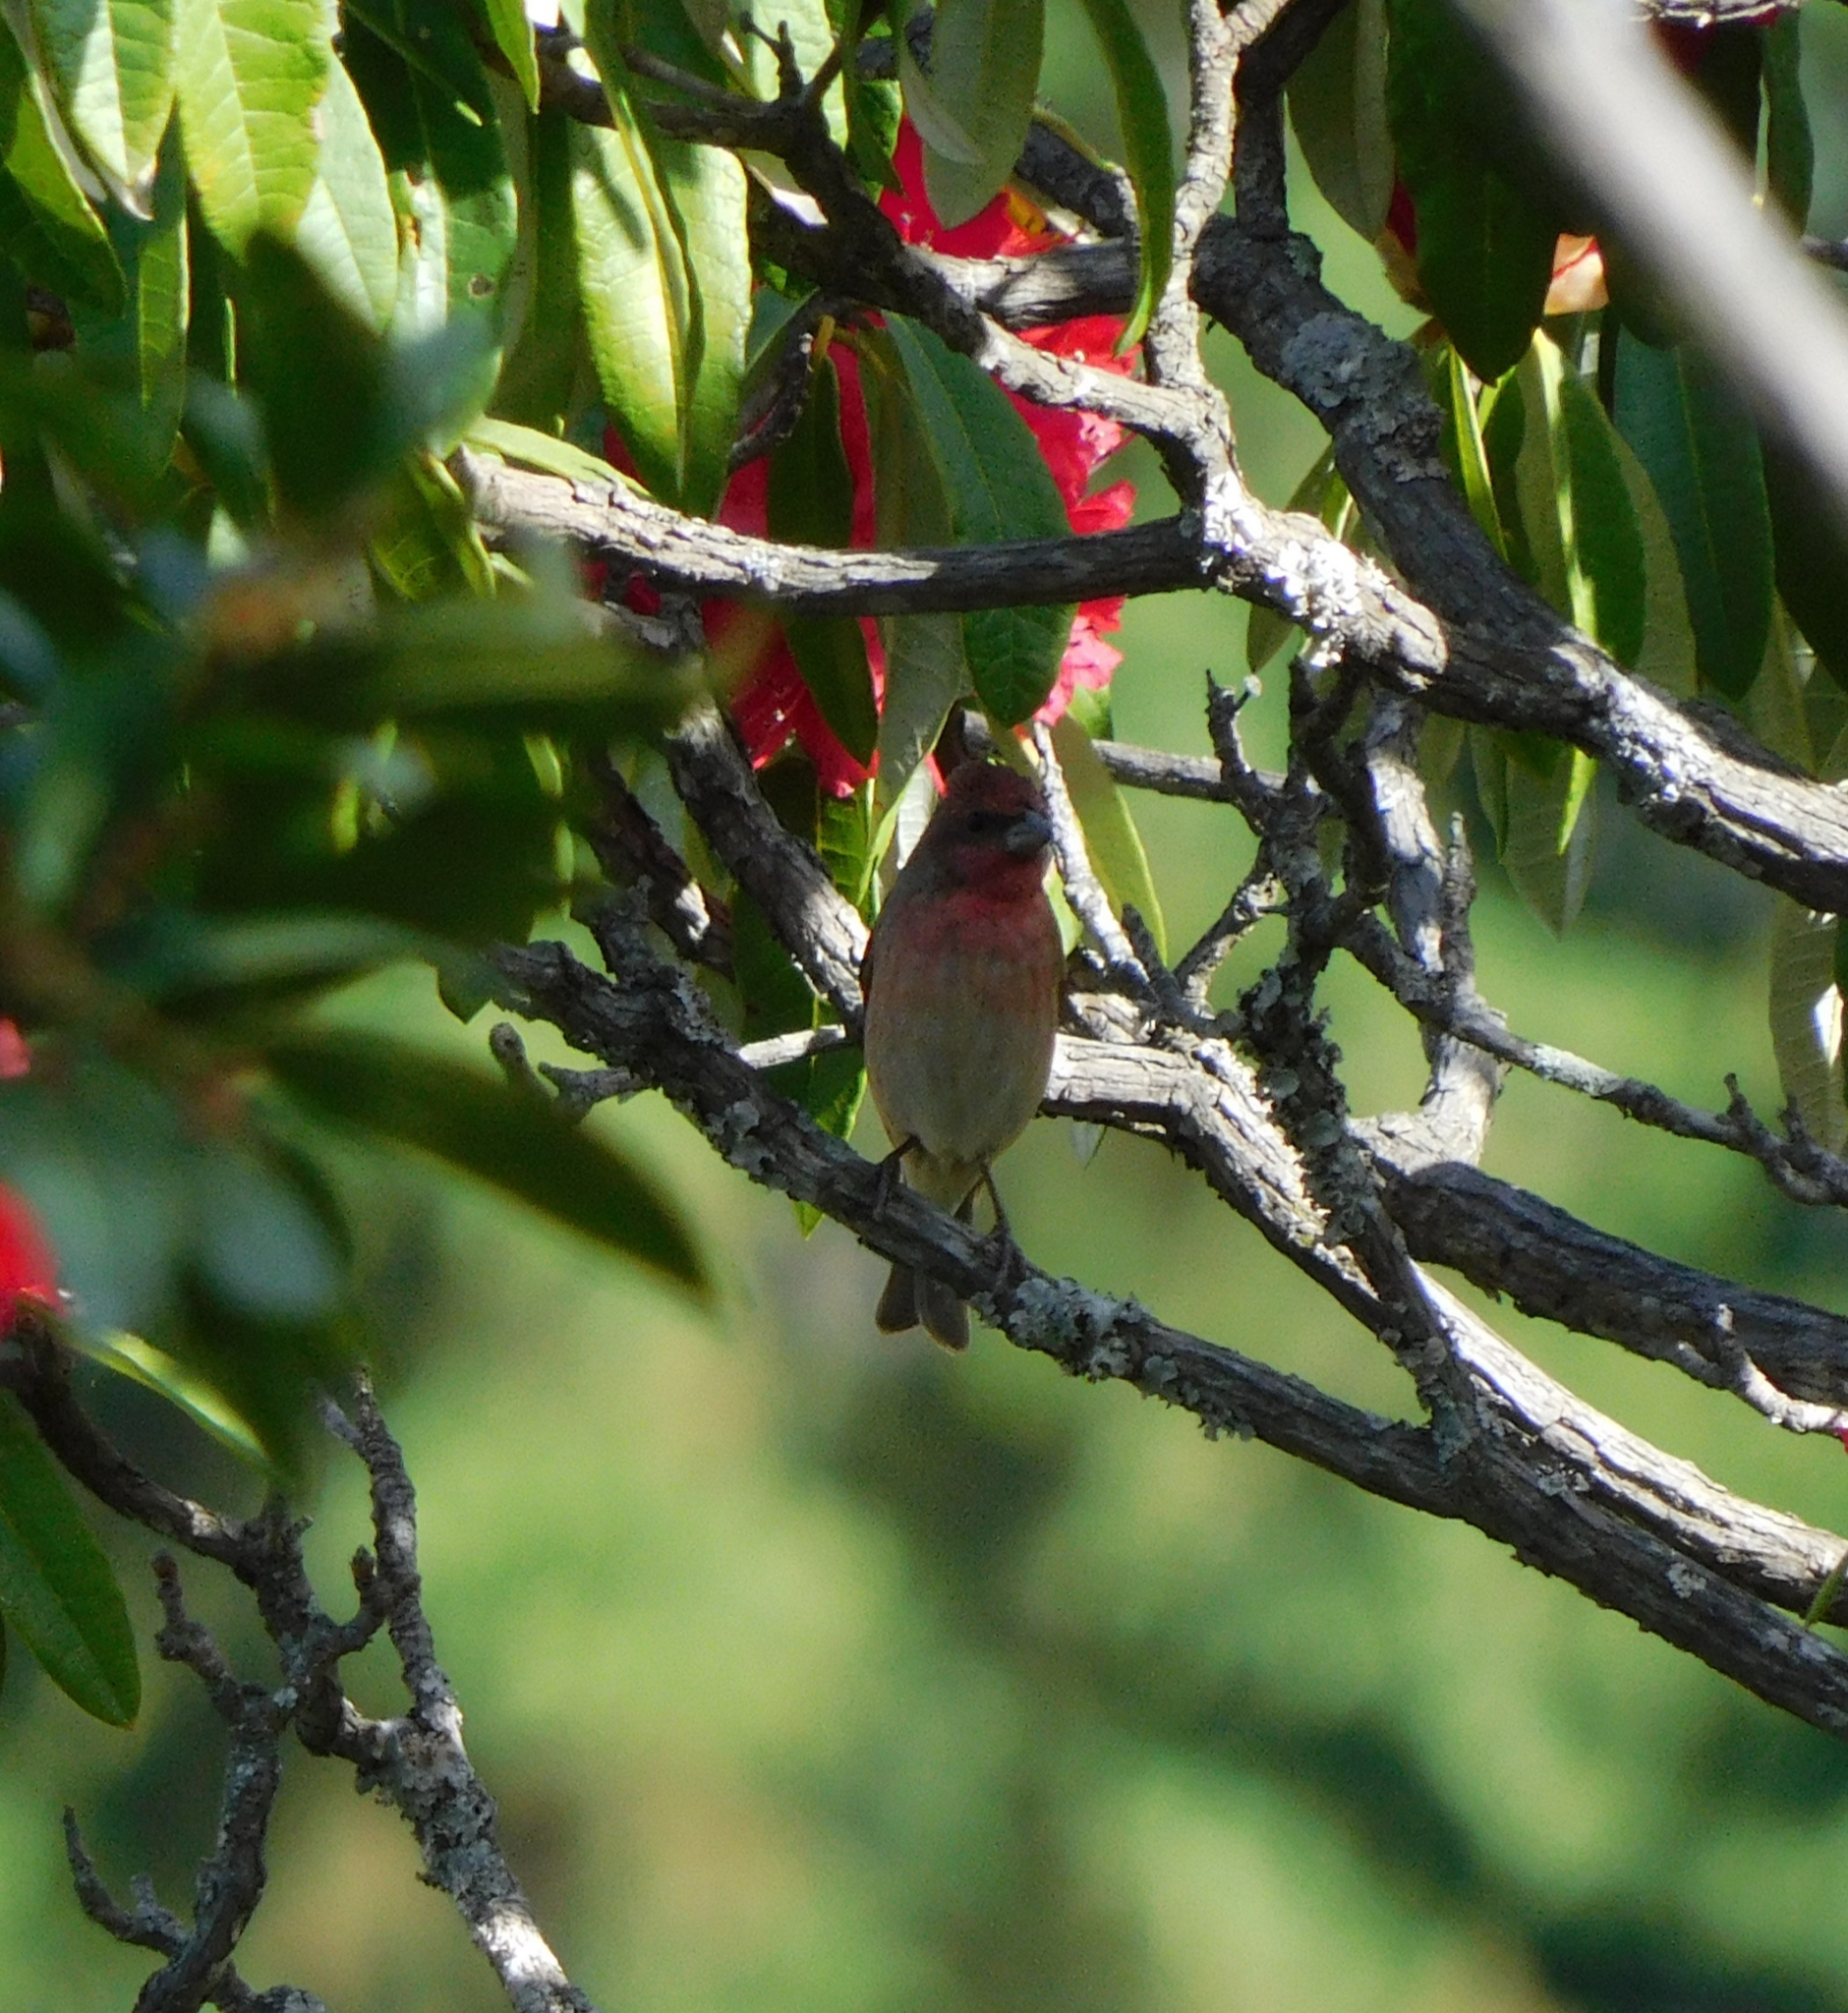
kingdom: Animalia
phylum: Chordata
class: Aves
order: Passeriformes
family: Fringillidae
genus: Carpodacus
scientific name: Carpodacus erythrinus
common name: Common rosefinch
